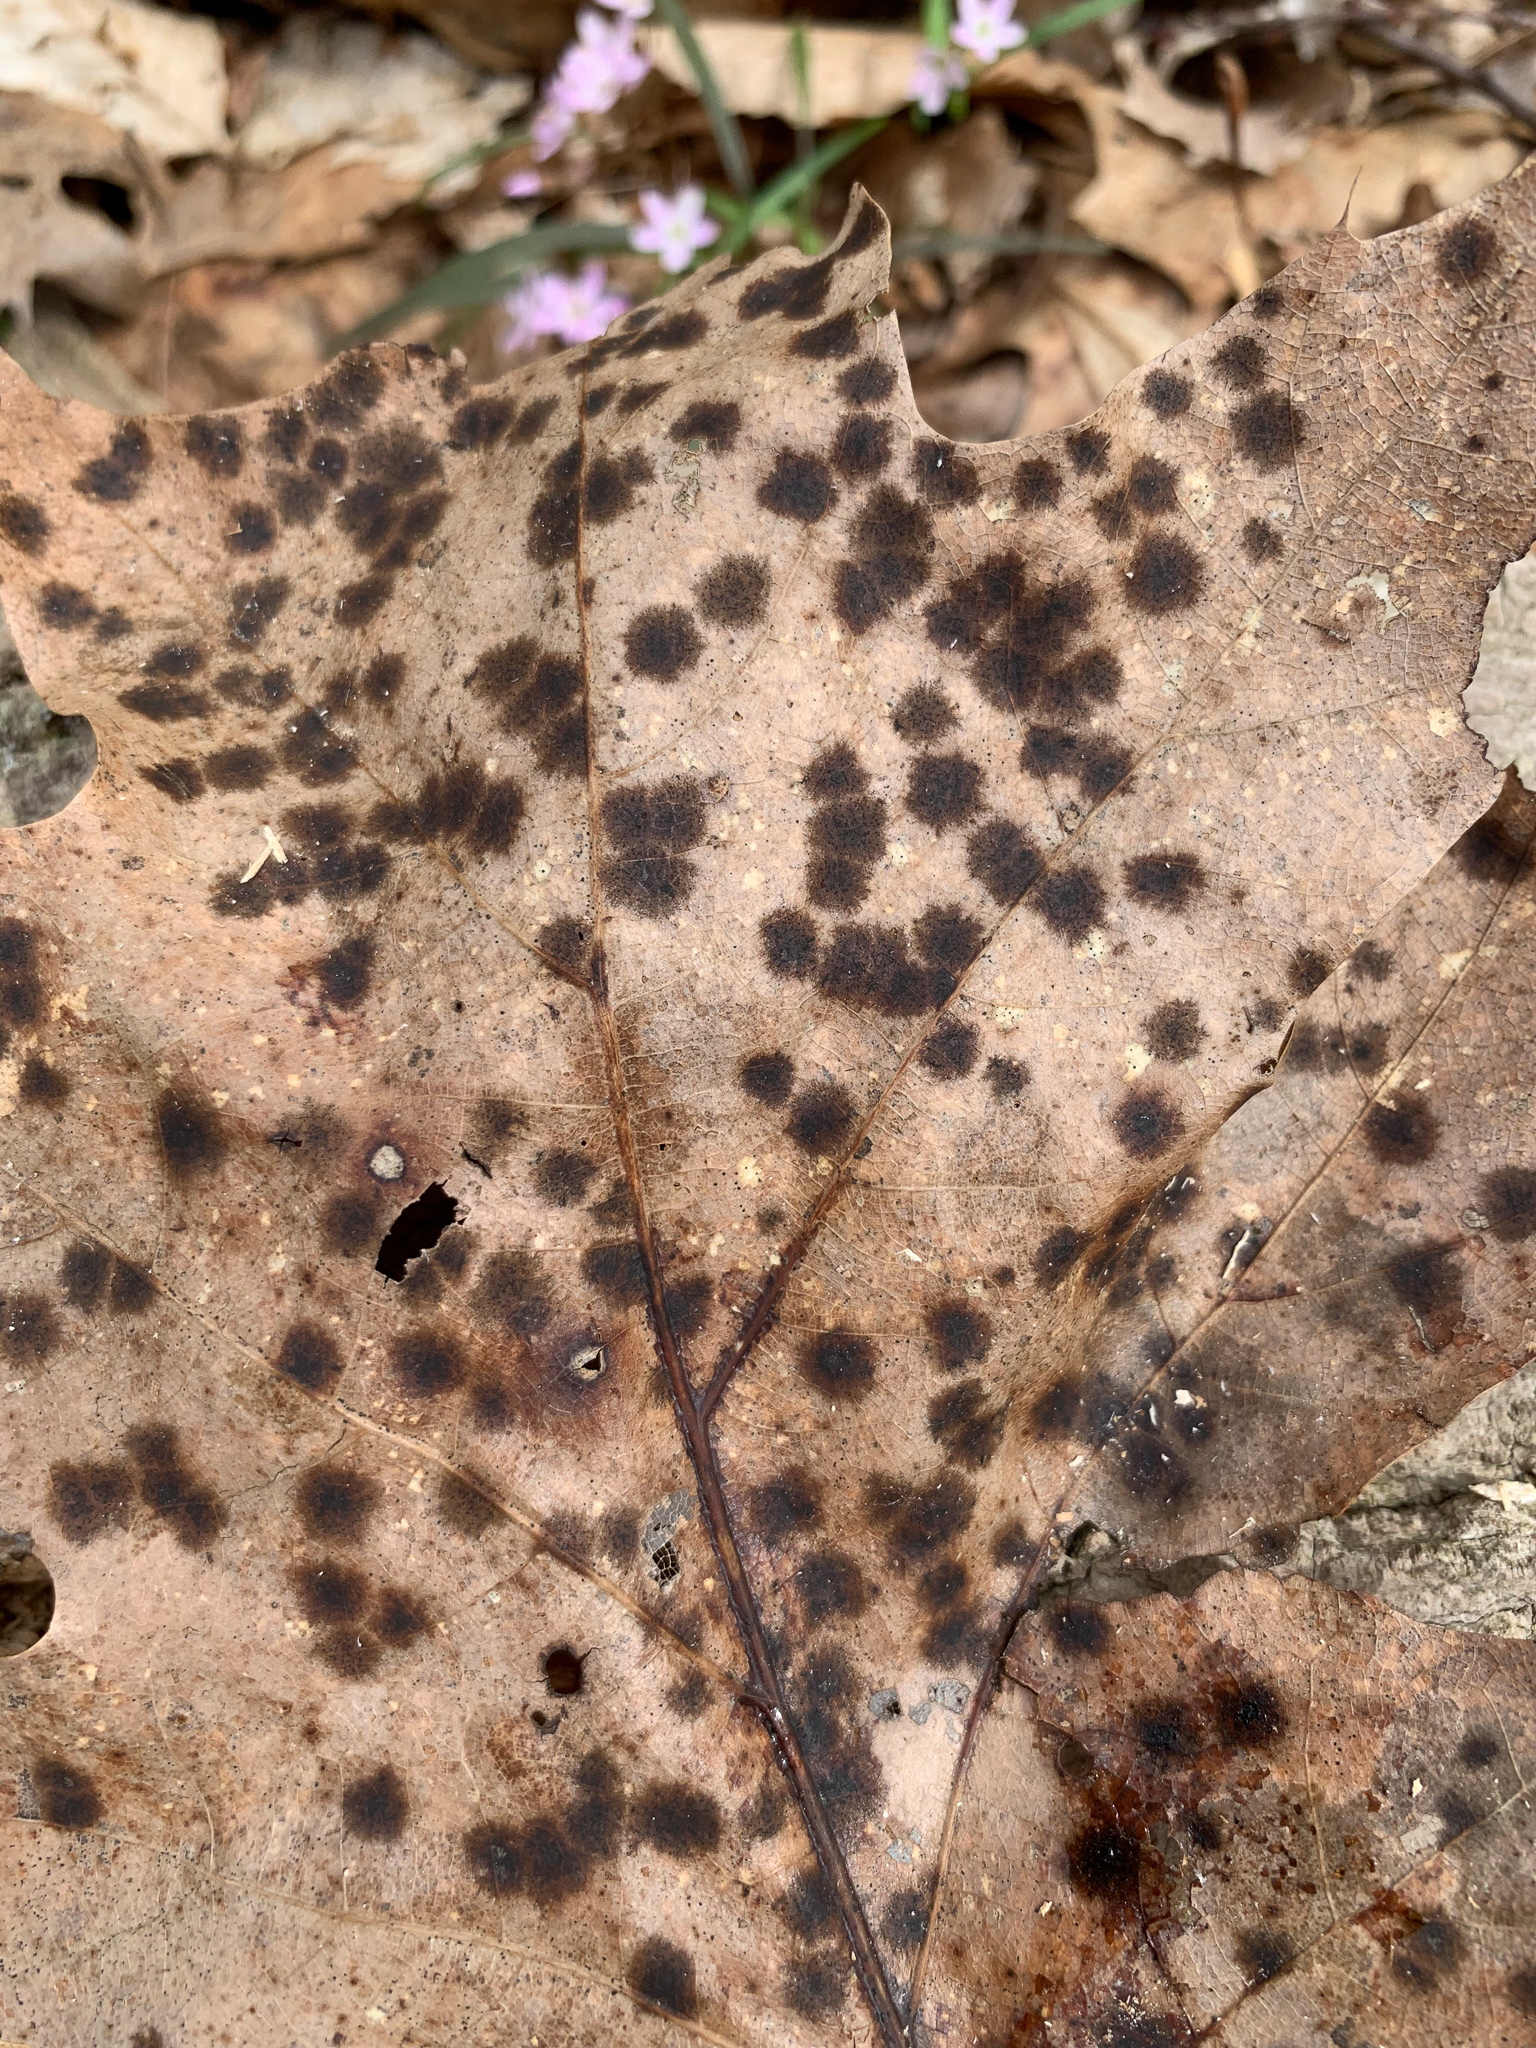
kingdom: Fungi
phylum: Ascomycota
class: Sordariomycetes
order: Diaporthales
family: Melanconidaceae
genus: Dicarpella
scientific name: Dicarpella dryina
